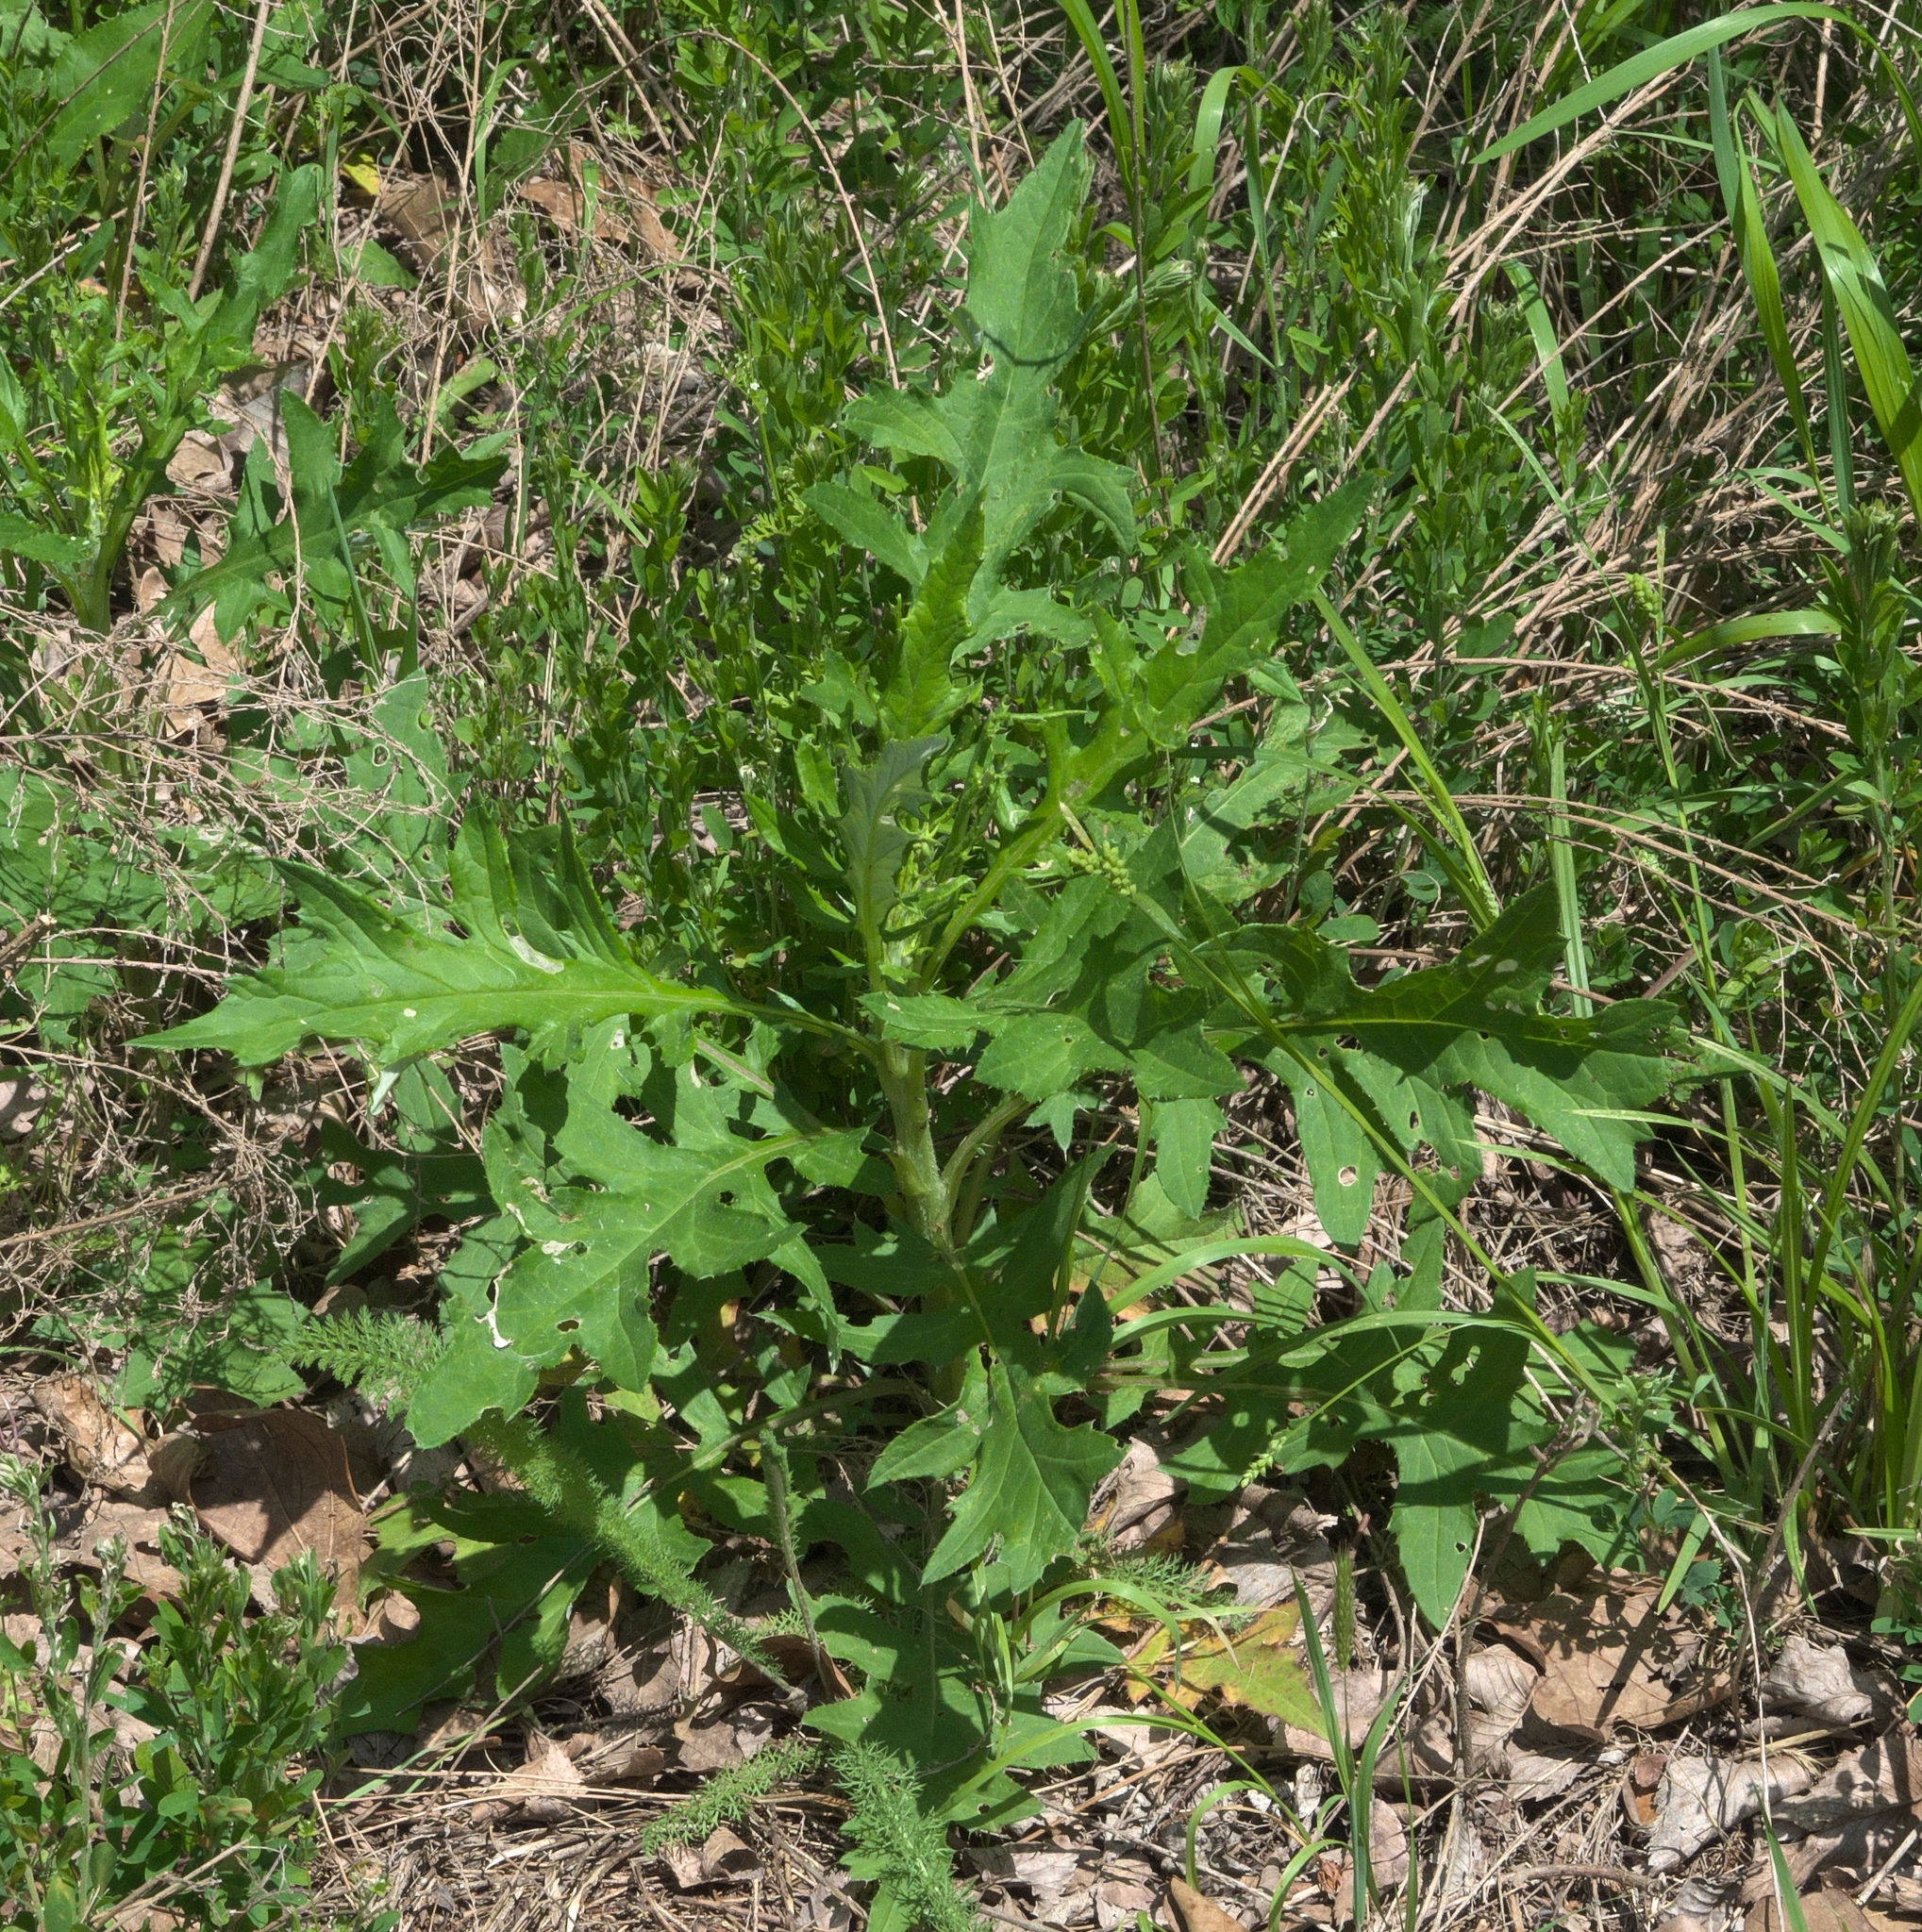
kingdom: Plantae
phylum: Tracheophyta
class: Magnoliopsida
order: Asterales
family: Asteraceae
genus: Cirsium
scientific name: Cirsium altissimum
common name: Roadside thistle
